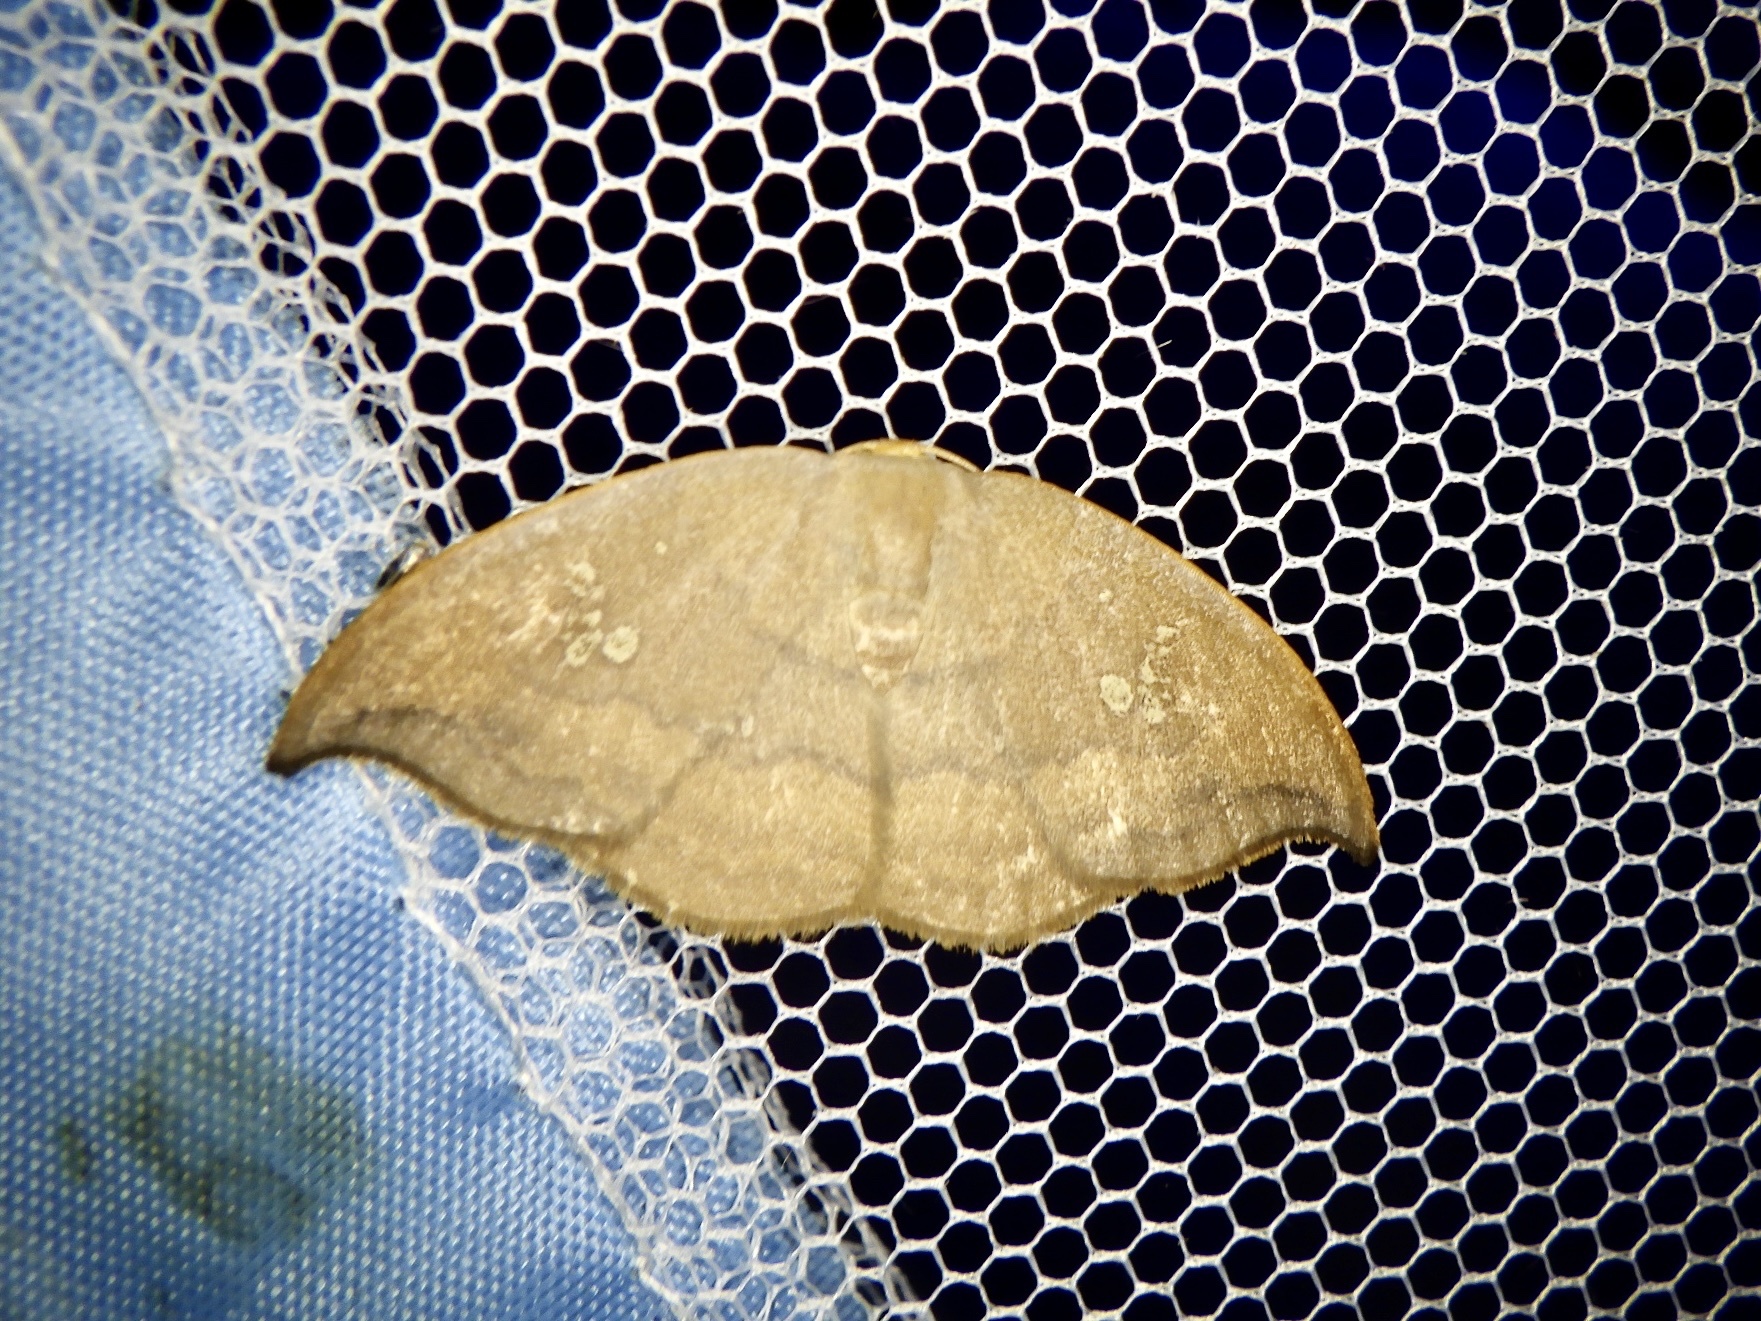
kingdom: Animalia
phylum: Arthropoda
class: Insecta
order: Lepidoptera
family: Drepanidae
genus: Agnidra
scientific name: Agnidra scabiosa
